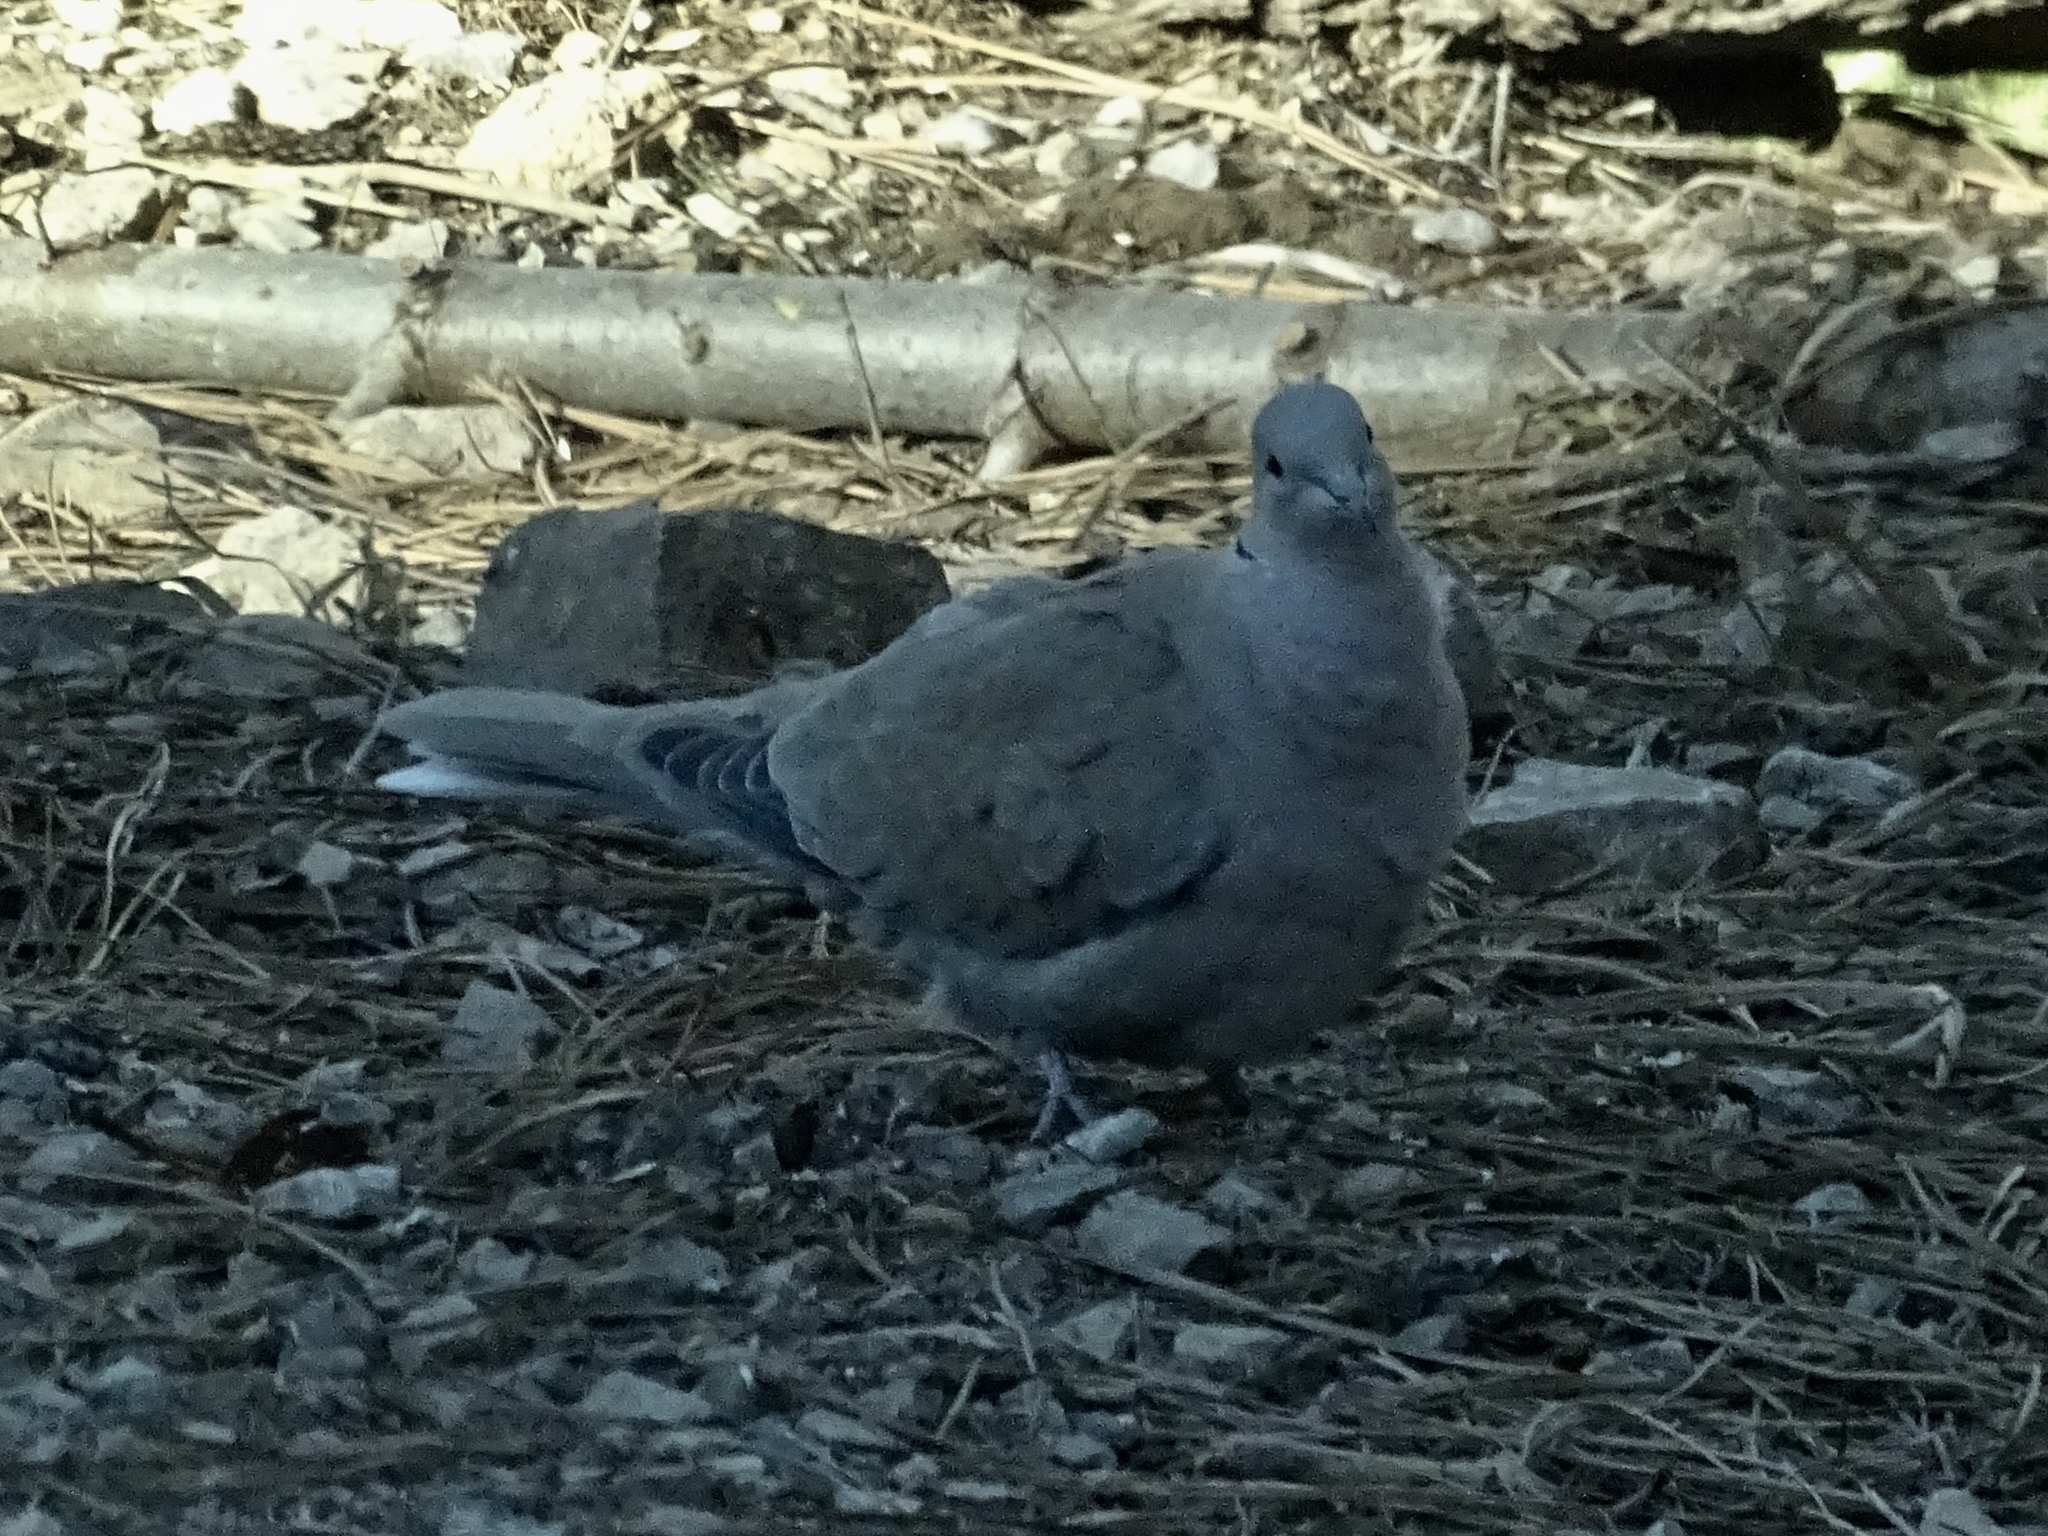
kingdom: Animalia
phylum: Chordata
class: Aves
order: Columbiformes
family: Columbidae
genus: Streptopelia
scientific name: Streptopelia decaocto
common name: Eurasian collared dove
